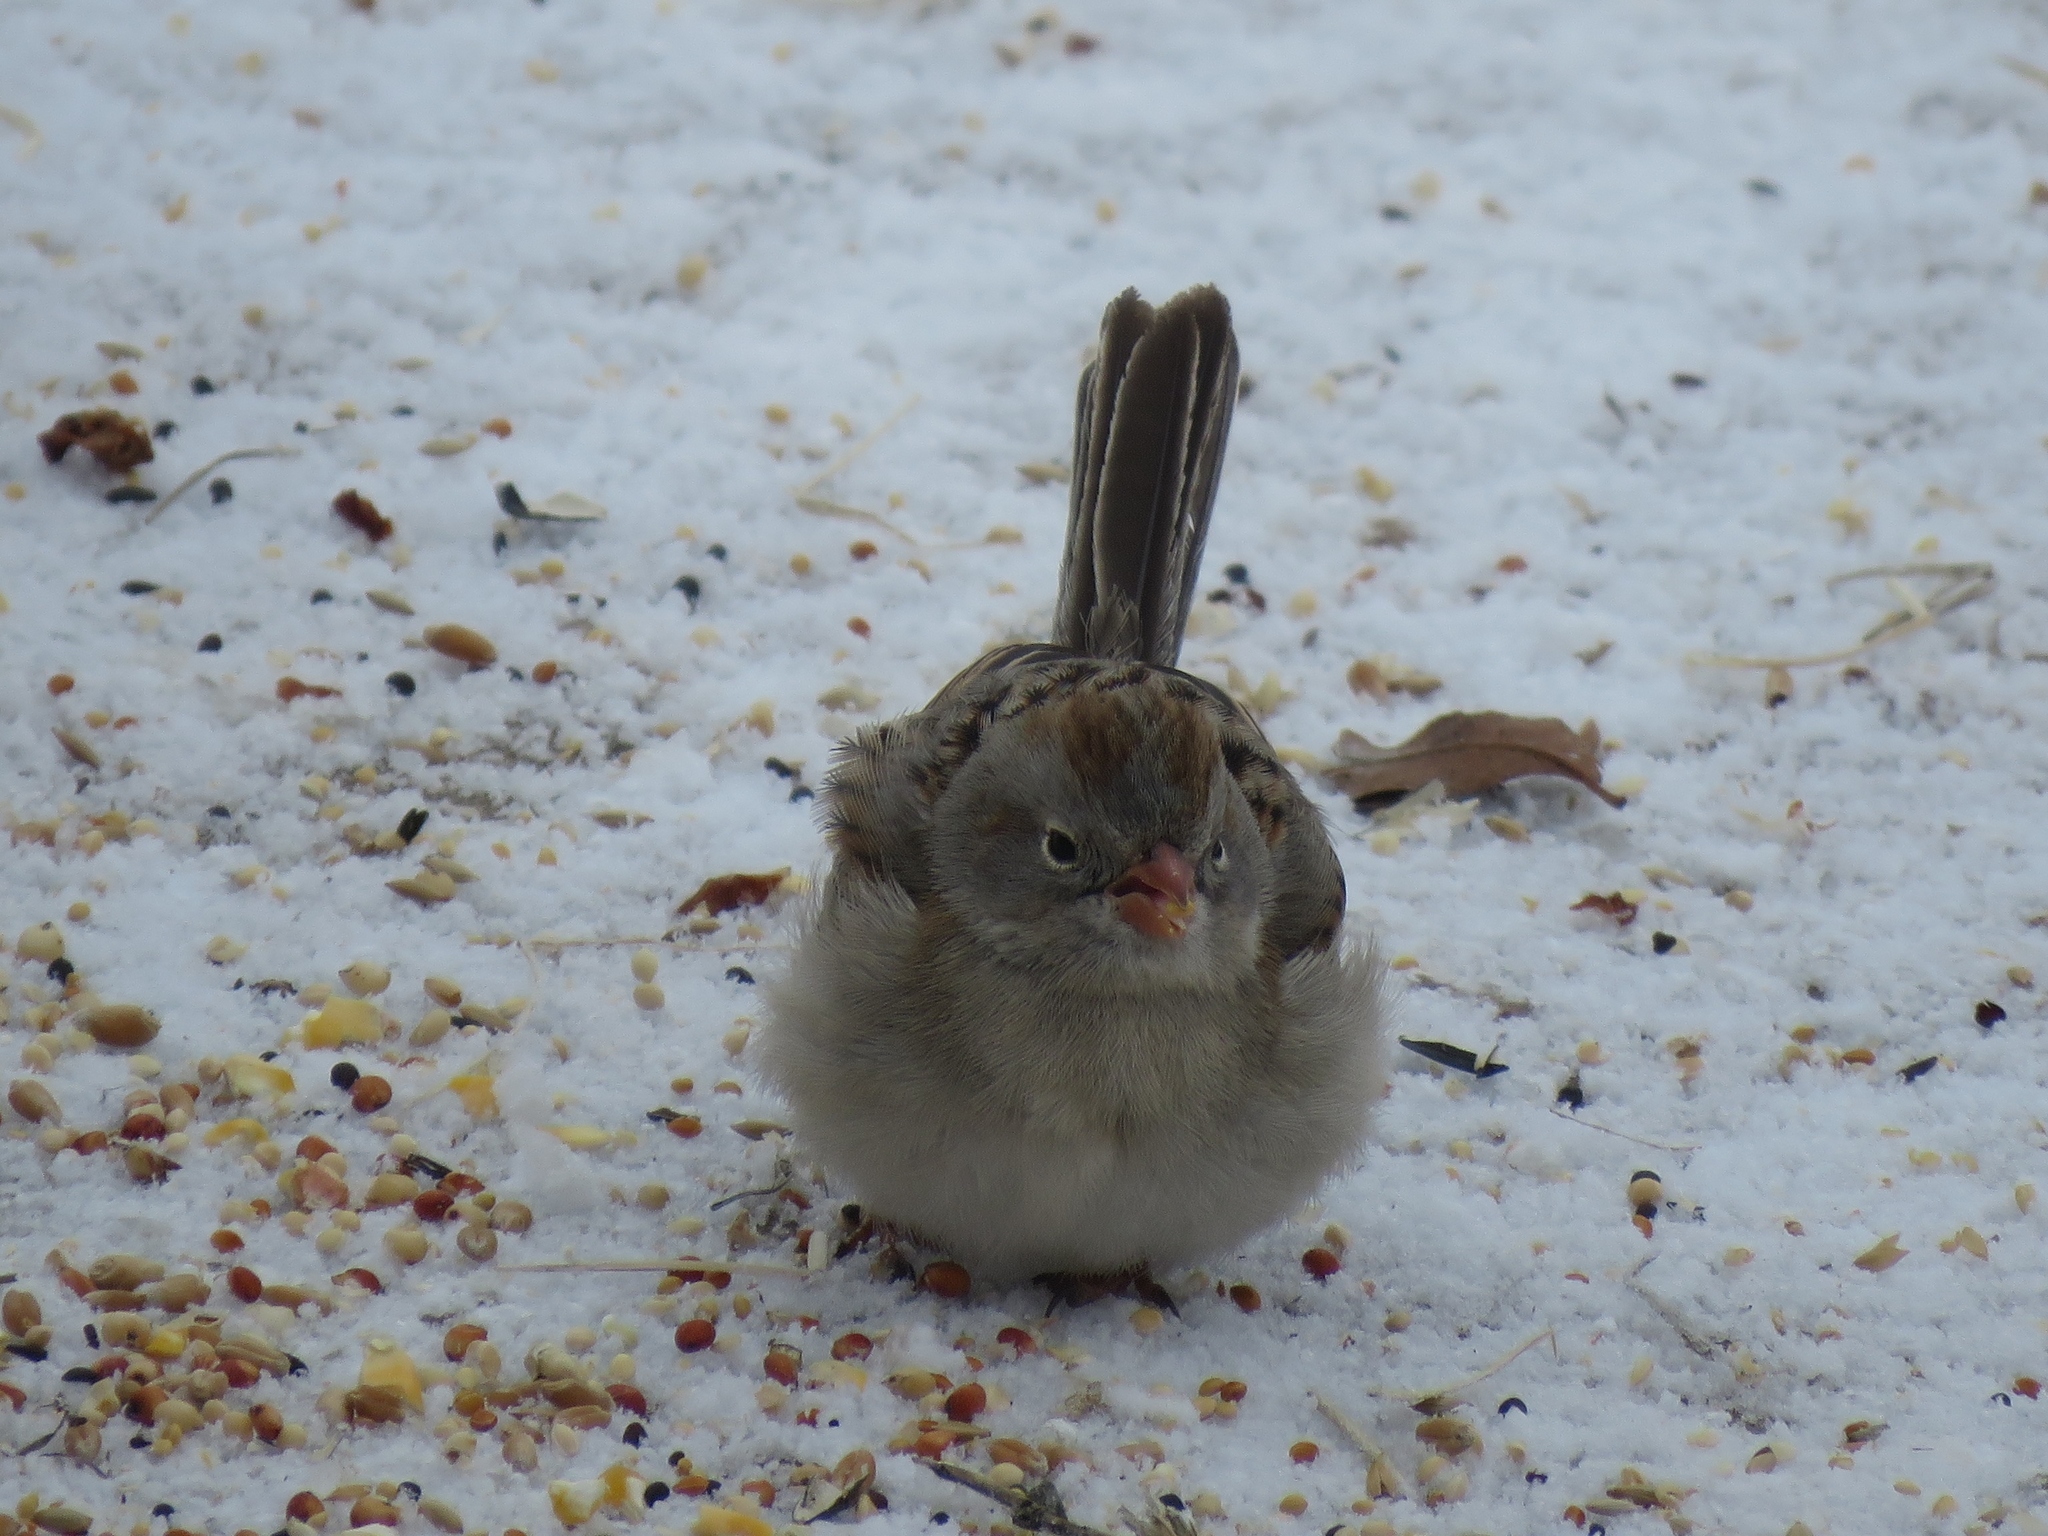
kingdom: Animalia
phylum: Chordata
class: Aves
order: Passeriformes
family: Passerellidae
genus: Spizella
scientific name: Spizella pusilla
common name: Field sparrow
